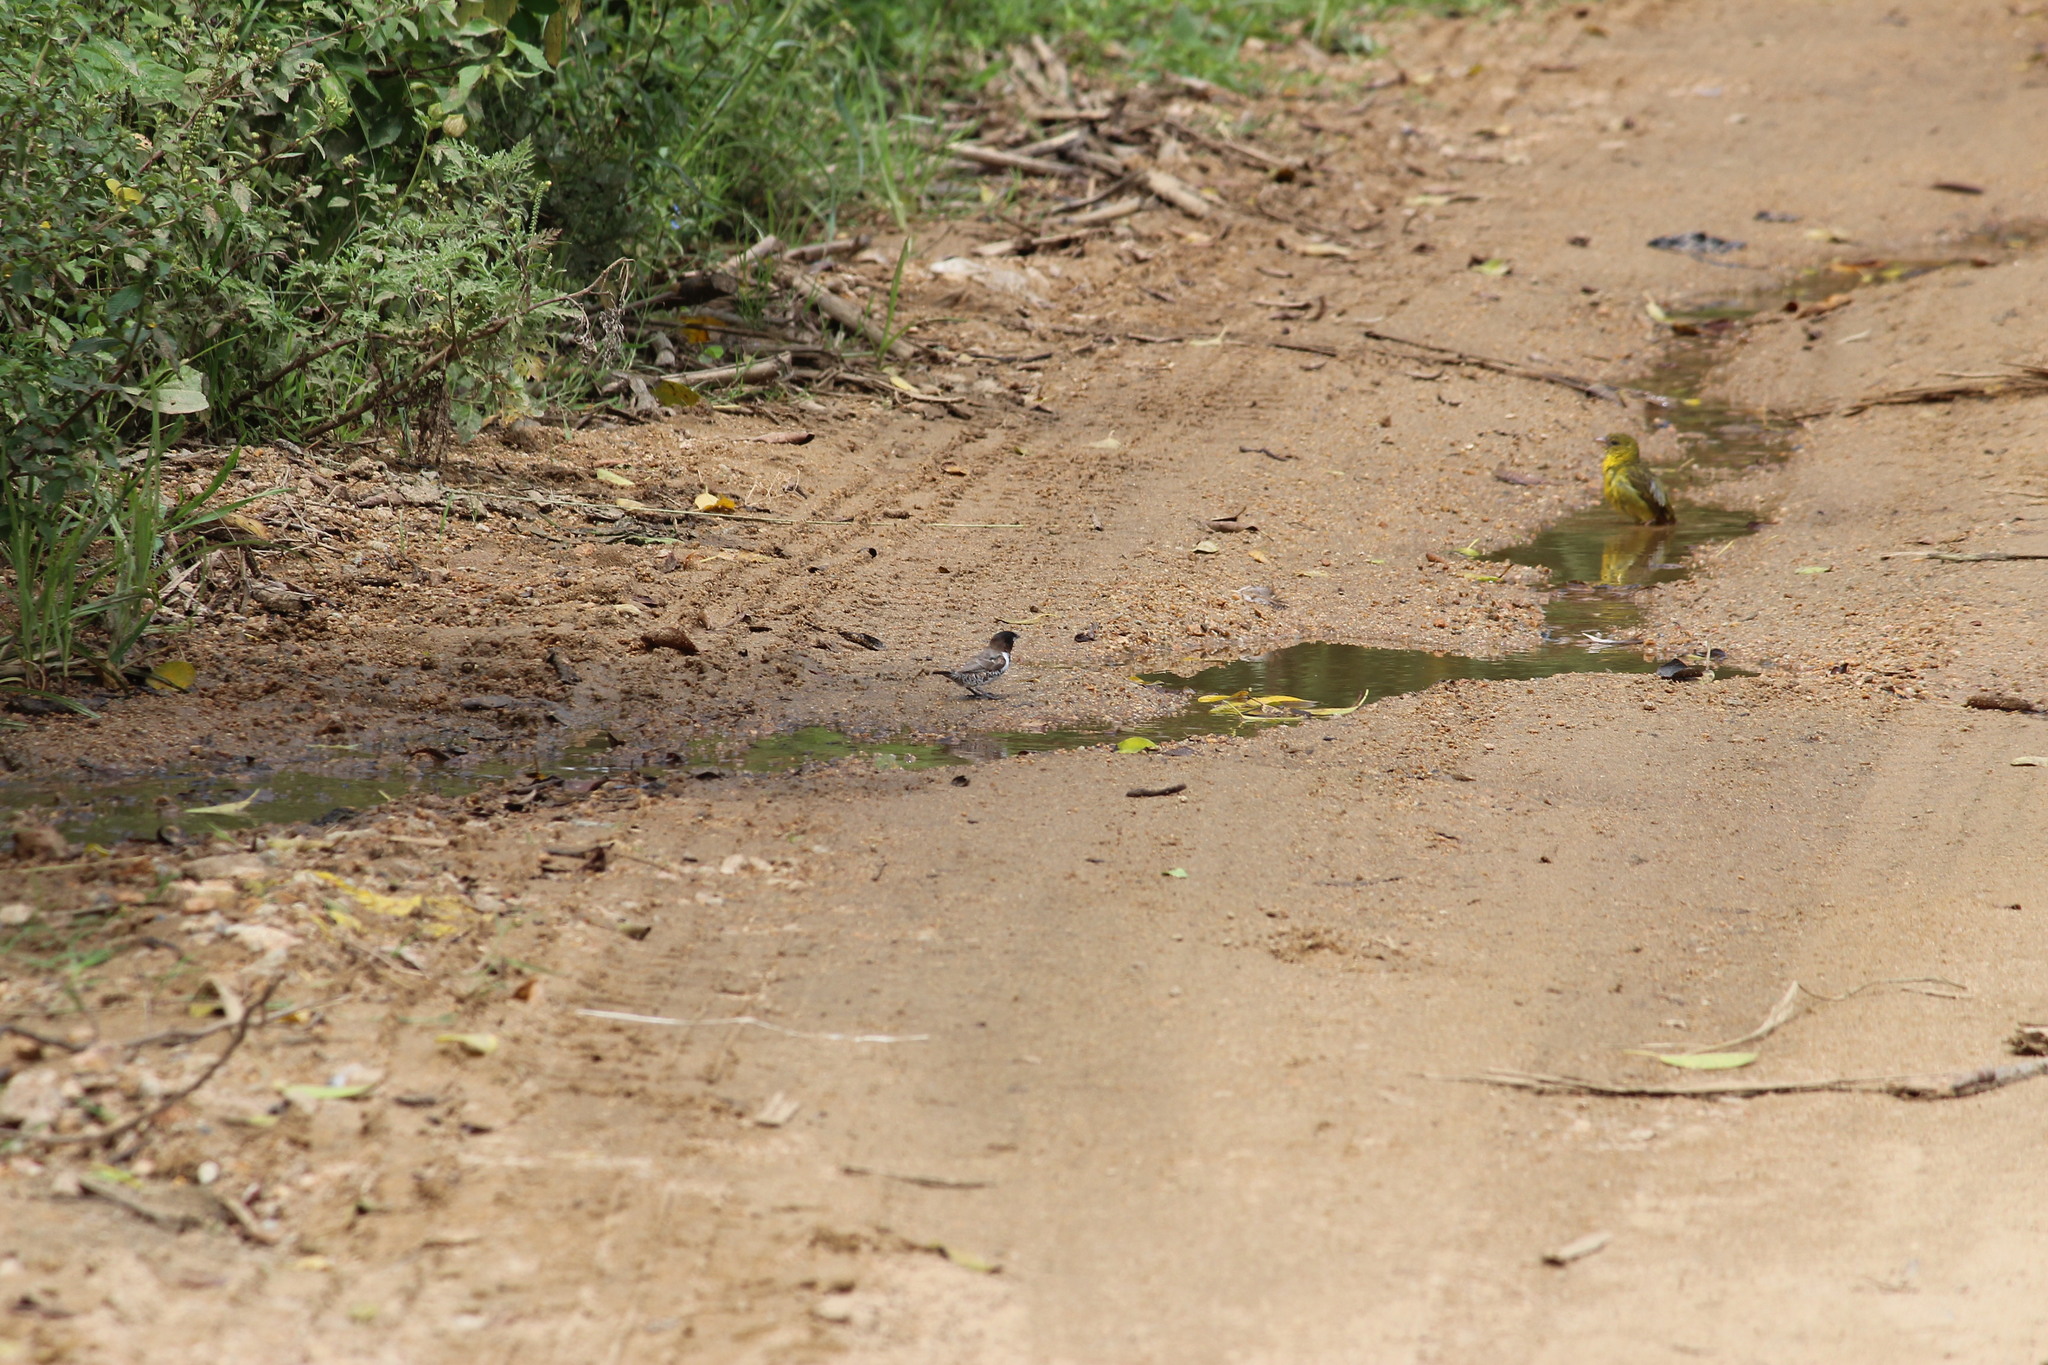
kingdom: Animalia
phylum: Chordata
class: Aves
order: Passeriformes
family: Estrildidae
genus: Lonchura
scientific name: Lonchura cucullata
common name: Bronze mannikin
